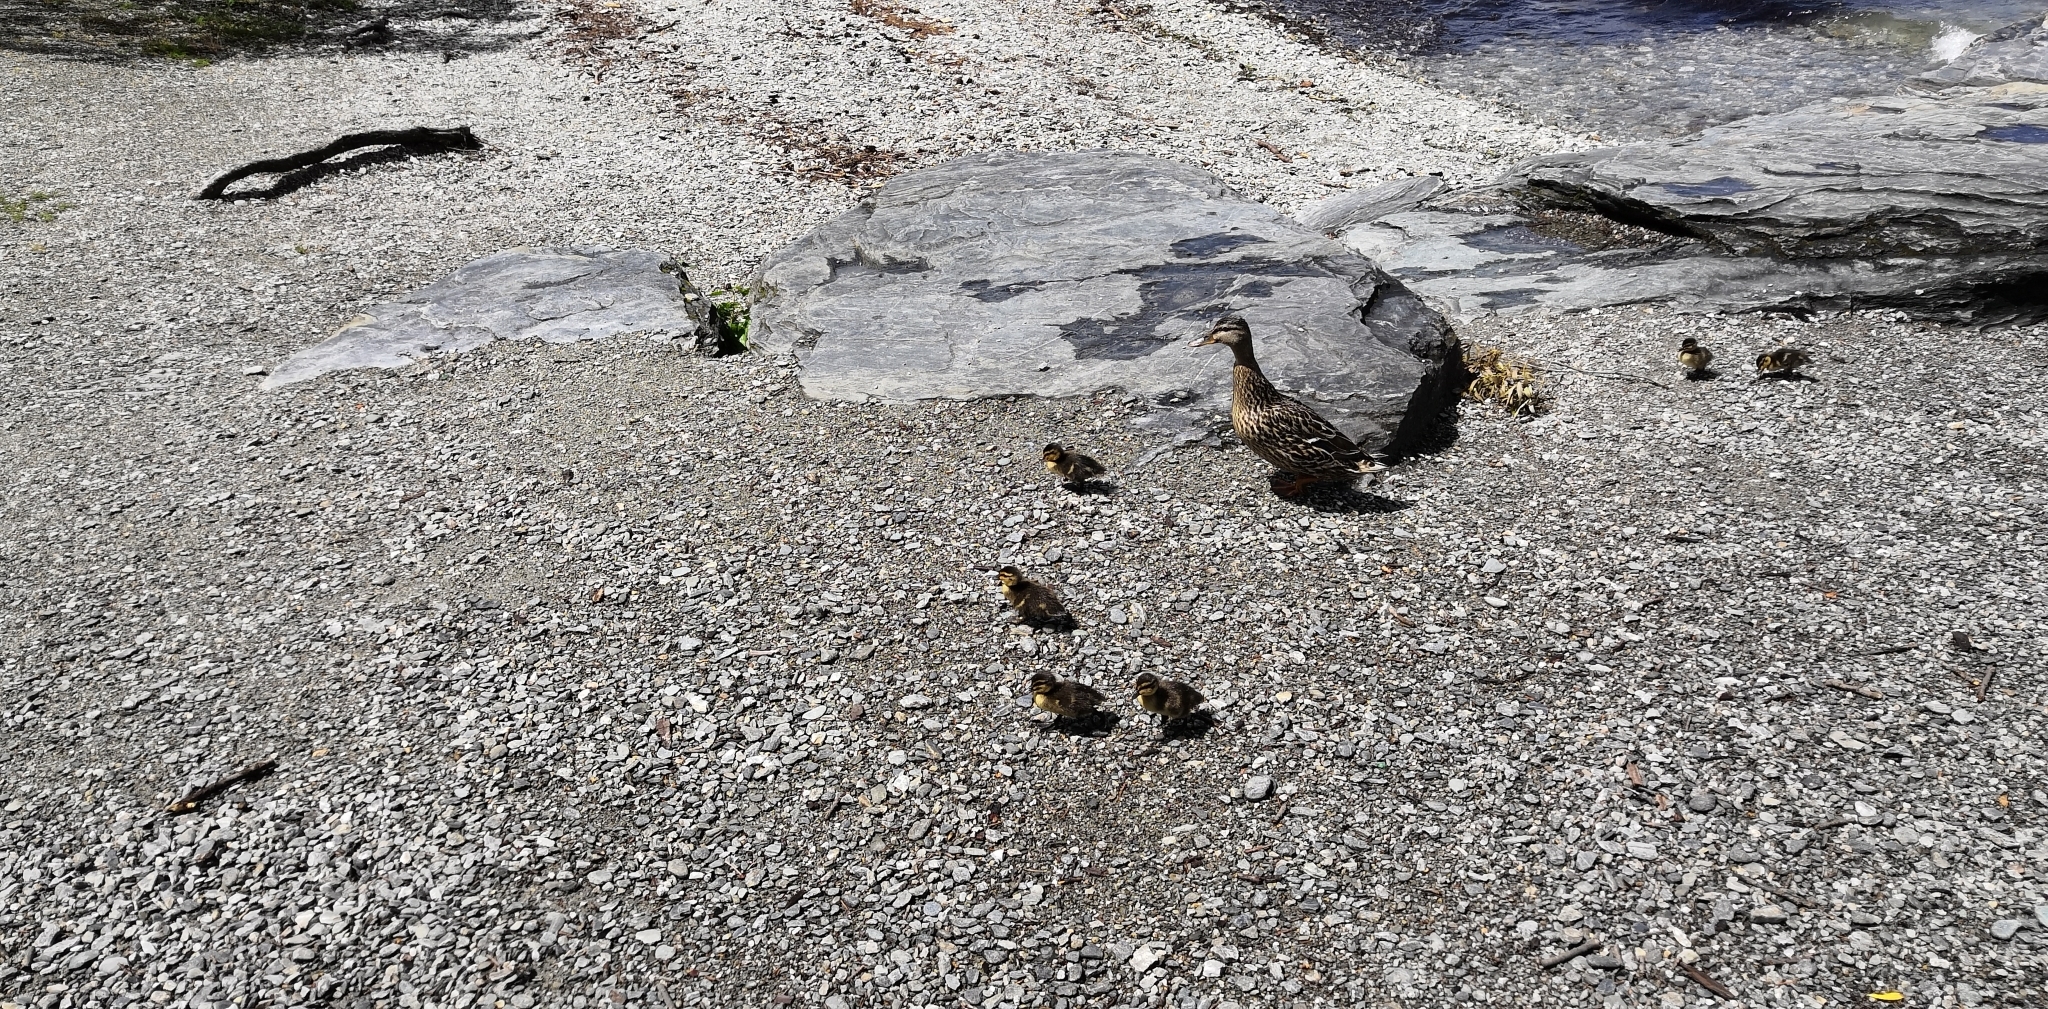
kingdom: Animalia
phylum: Chordata
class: Aves
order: Anseriformes
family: Anatidae
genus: Anas
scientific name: Anas platyrhynchos
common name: Mallard
